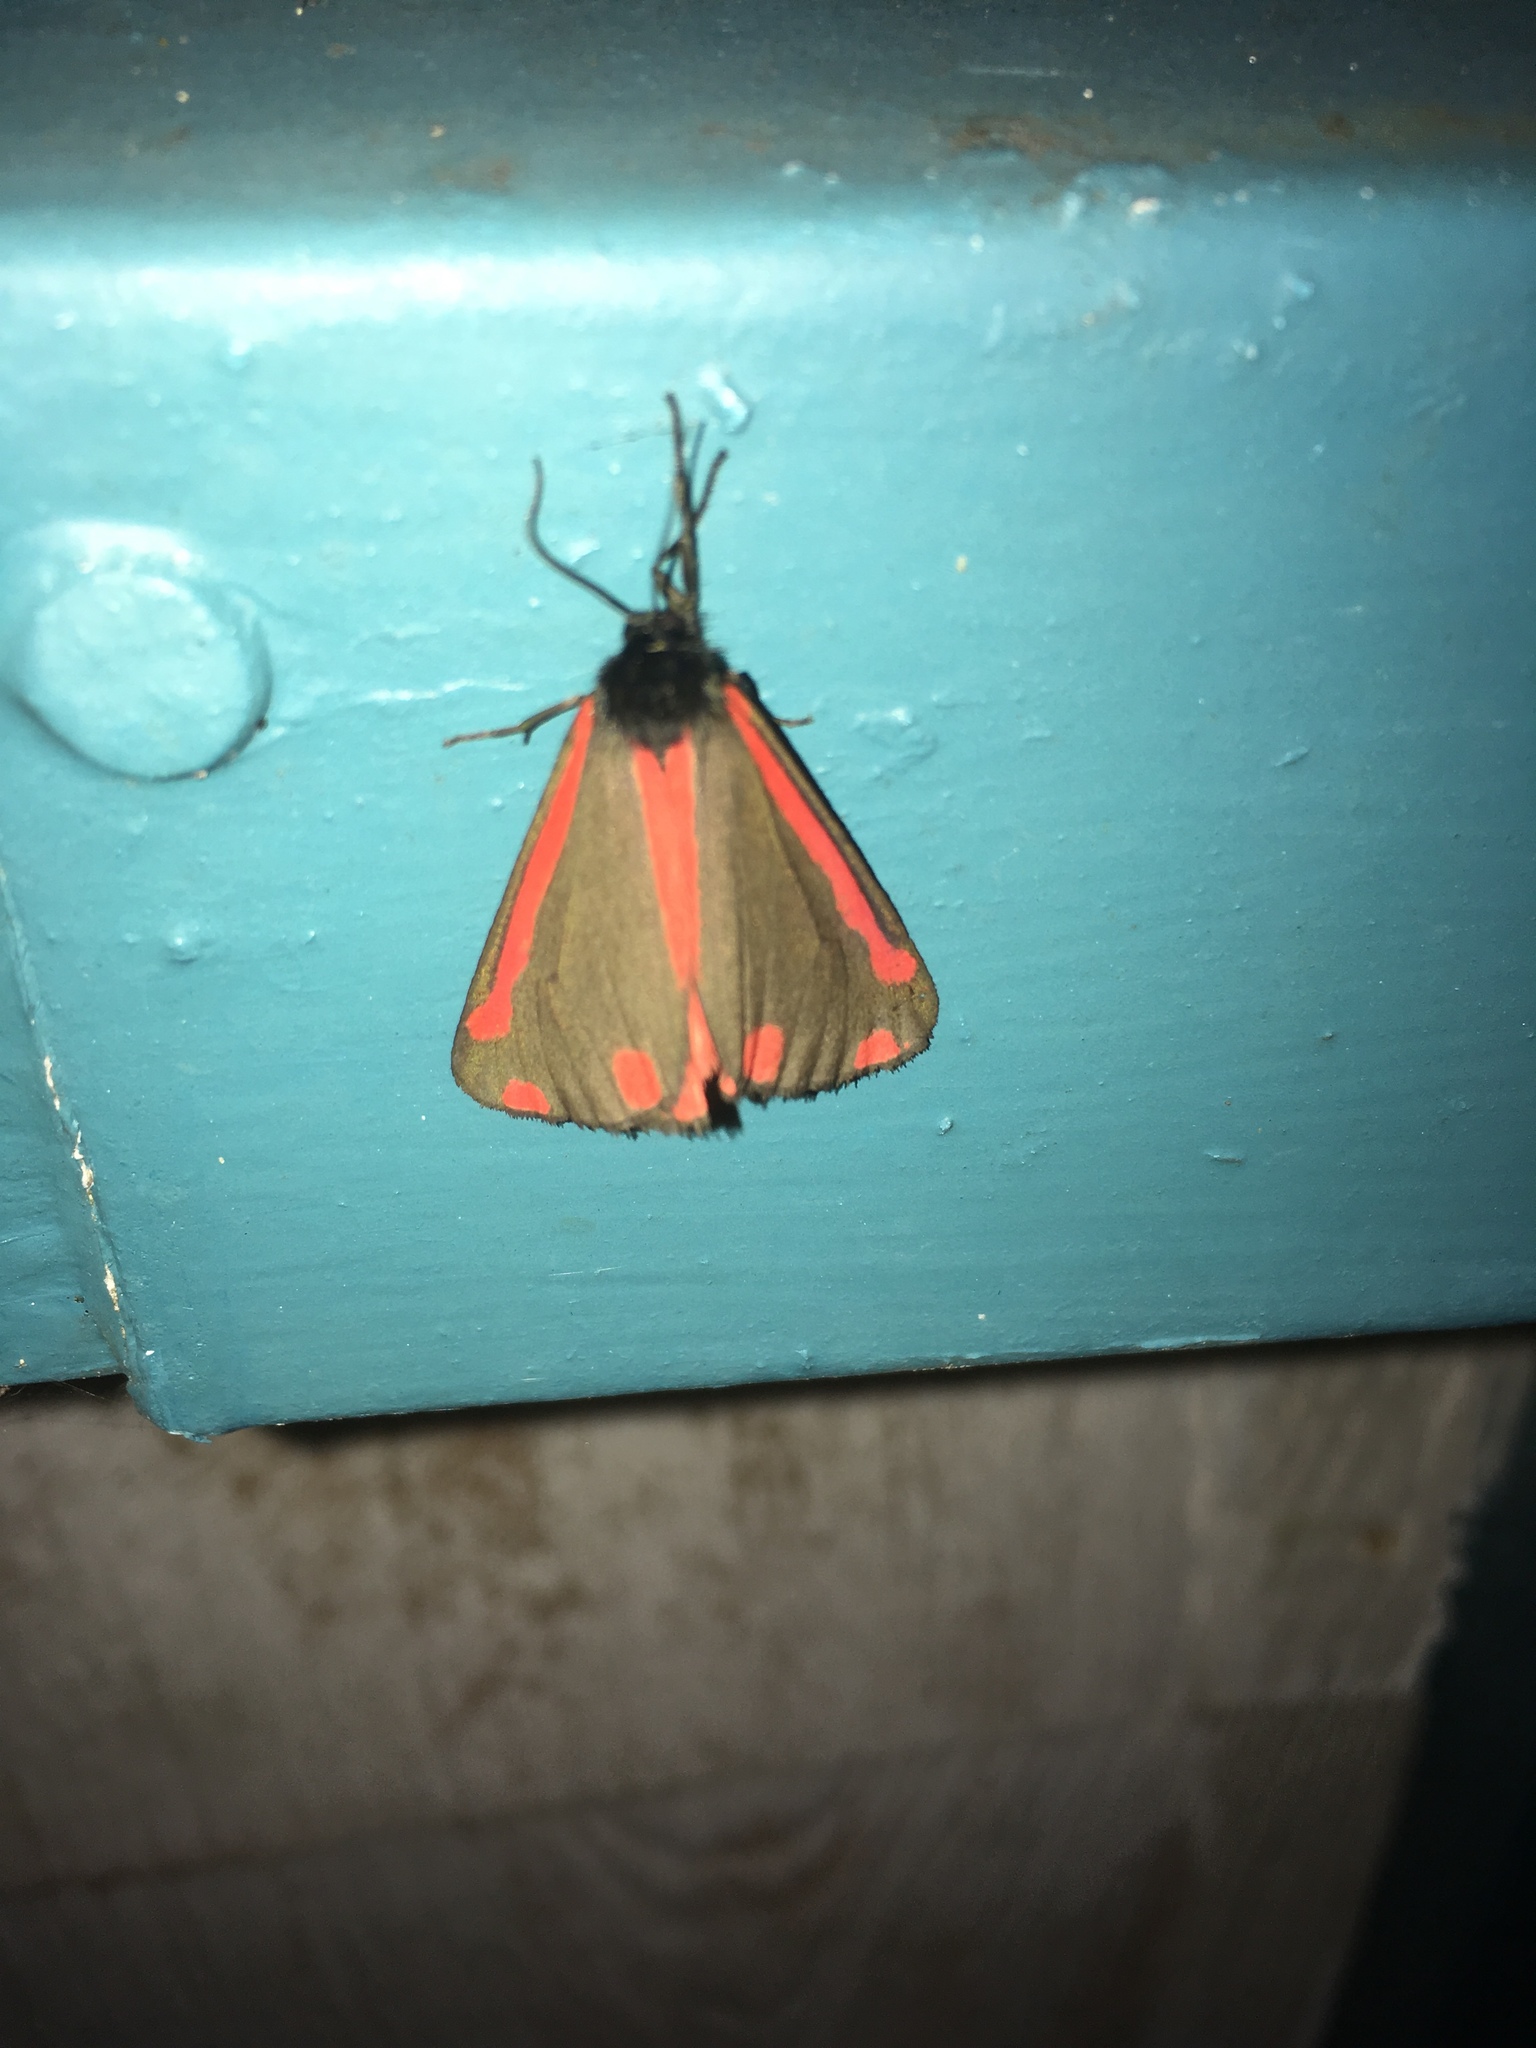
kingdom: Animalia
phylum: Arthropoda
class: Insecta
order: Lepidoptera
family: Erebidae
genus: Tyria
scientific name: Tyria jacobaeae
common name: Cinnabar
